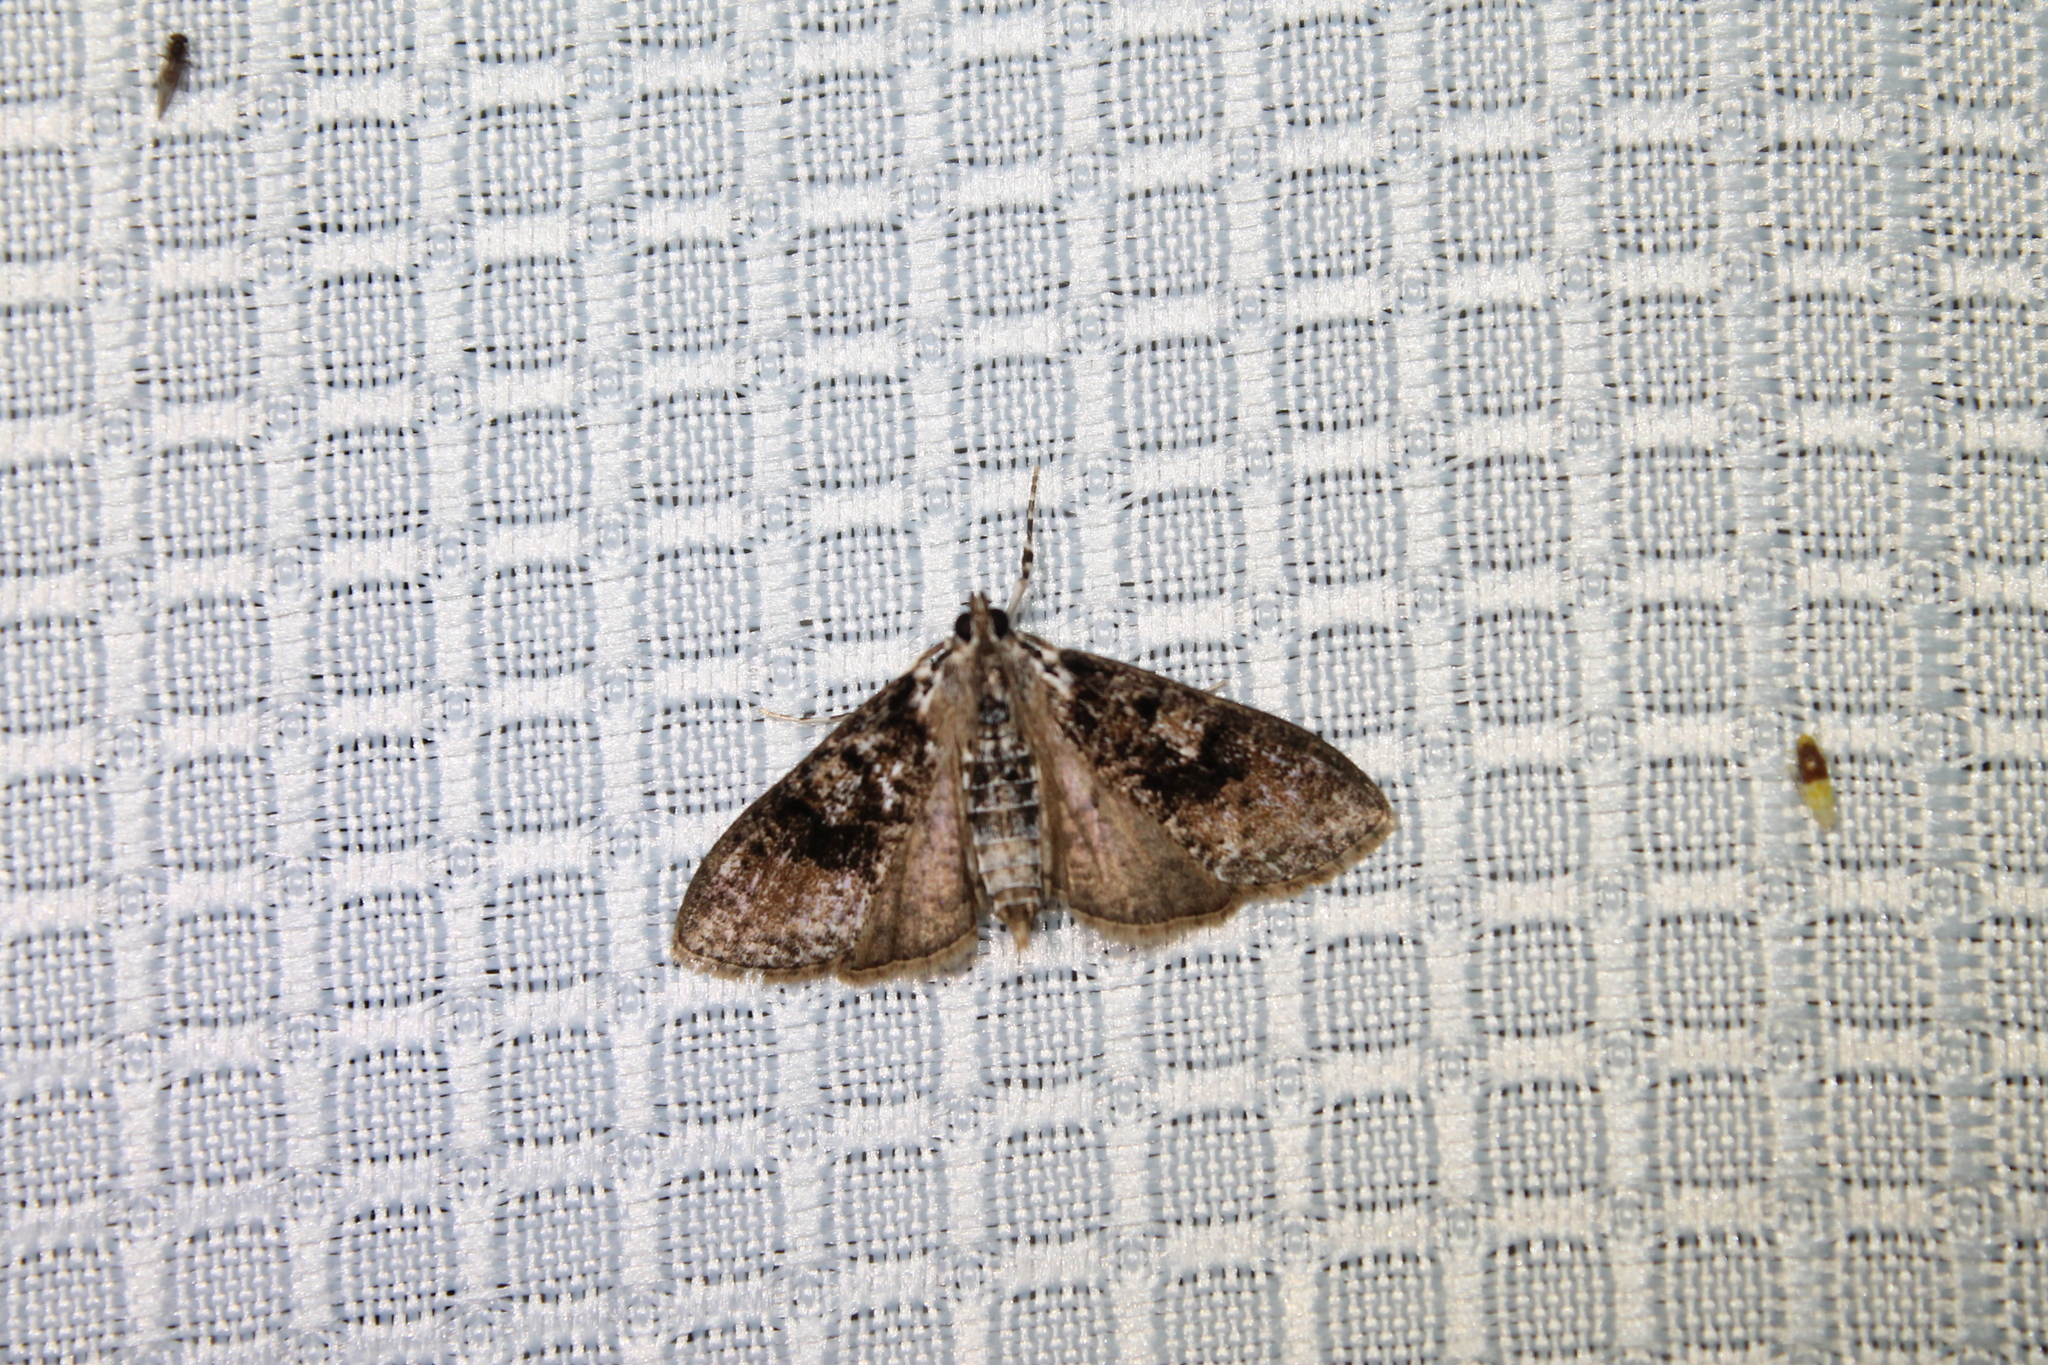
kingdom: Animalia
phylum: Arthropoda
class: Insecta
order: Lepidoptera
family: Crambidae
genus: Palpita
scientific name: Palpita magniferalis
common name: Splendid palpita moth
